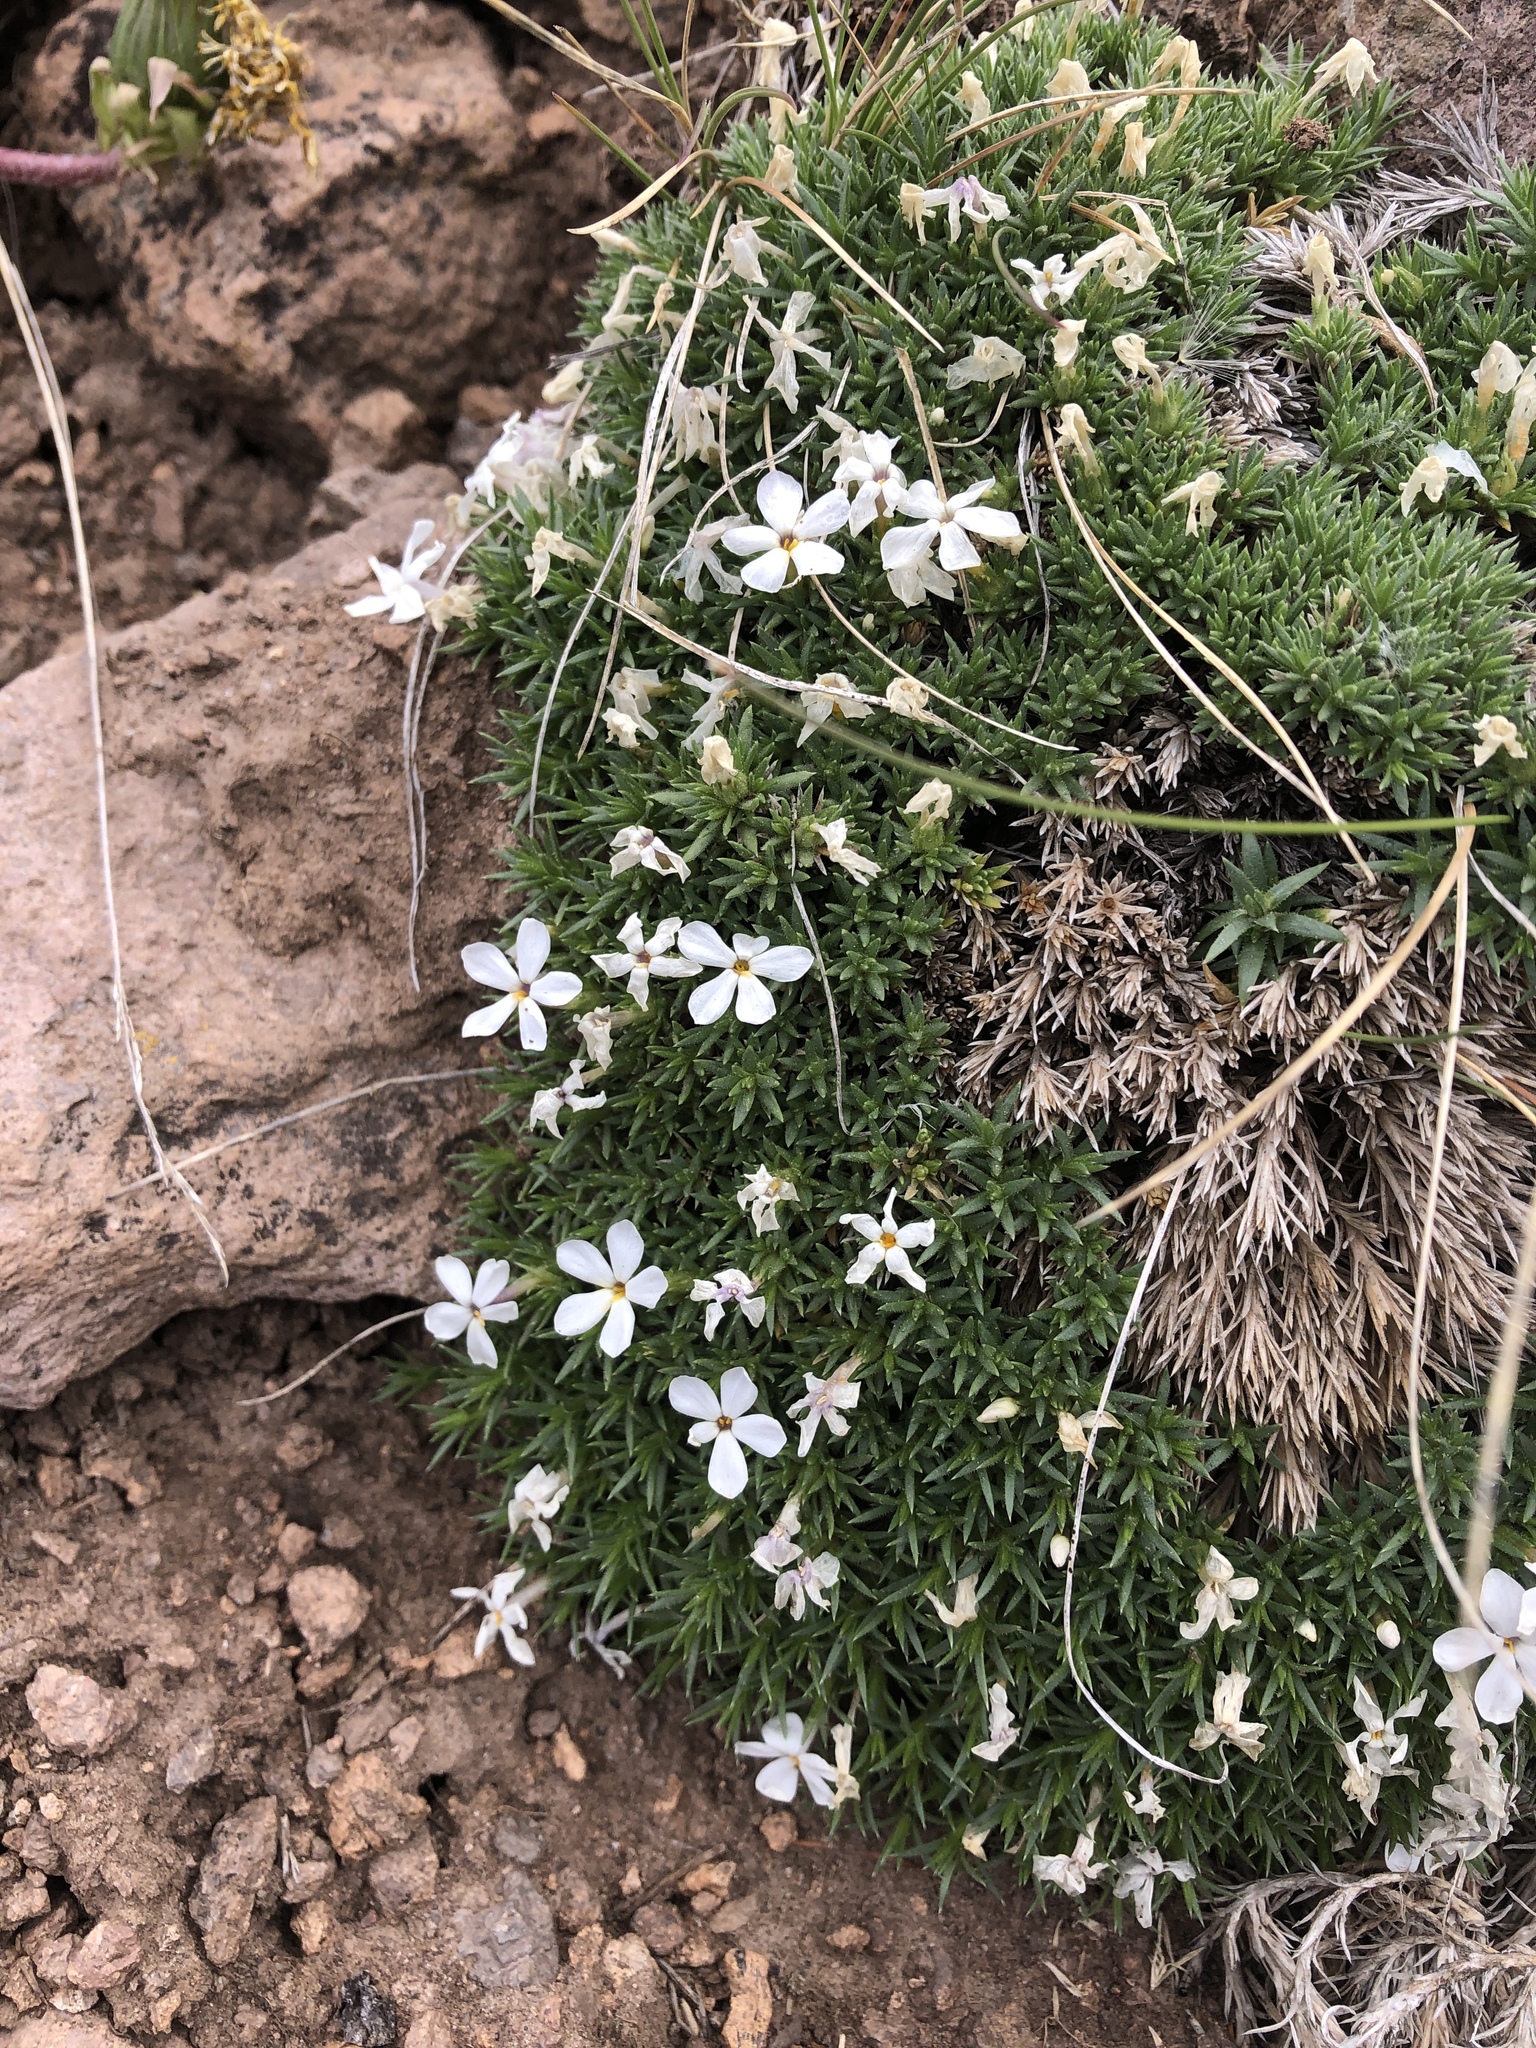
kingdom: Plantae
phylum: Tracheophyta
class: Magnoliopsida
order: Ericales
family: Polemoniaceae
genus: Phlox
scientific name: Phlox hoodii
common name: Moss phlox
